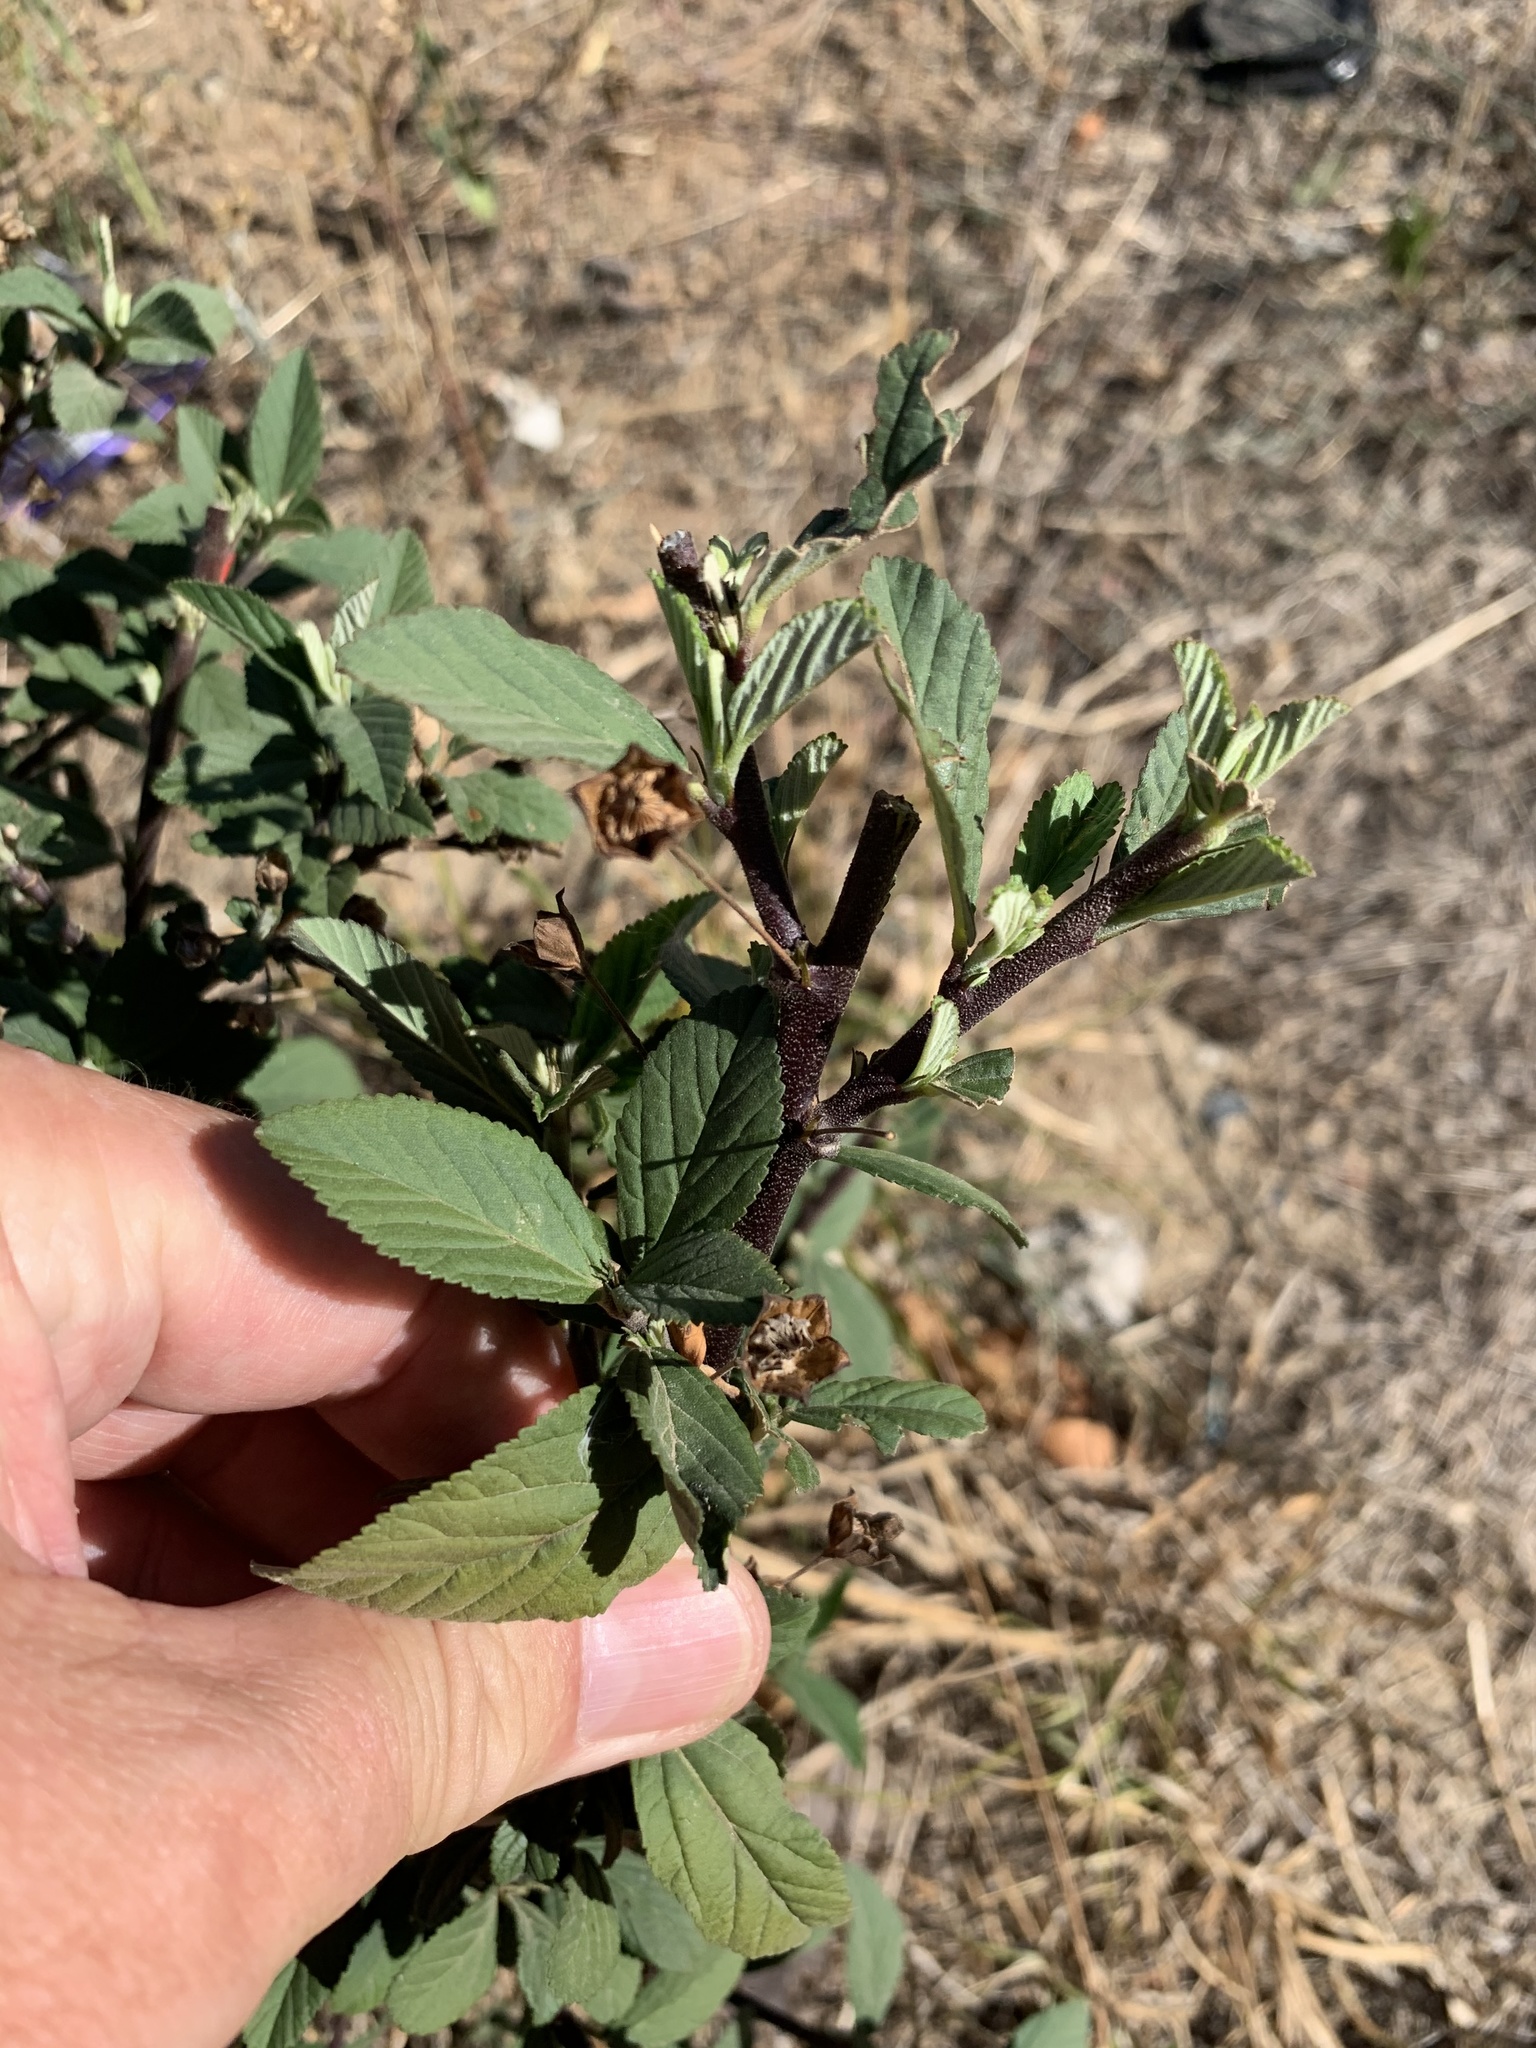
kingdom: Plantae
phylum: Tracheophyta
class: Magnoliopsida
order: Malvales
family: Malvaceae
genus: Sida
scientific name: Sida rhombifolia
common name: Queensland-hemp
